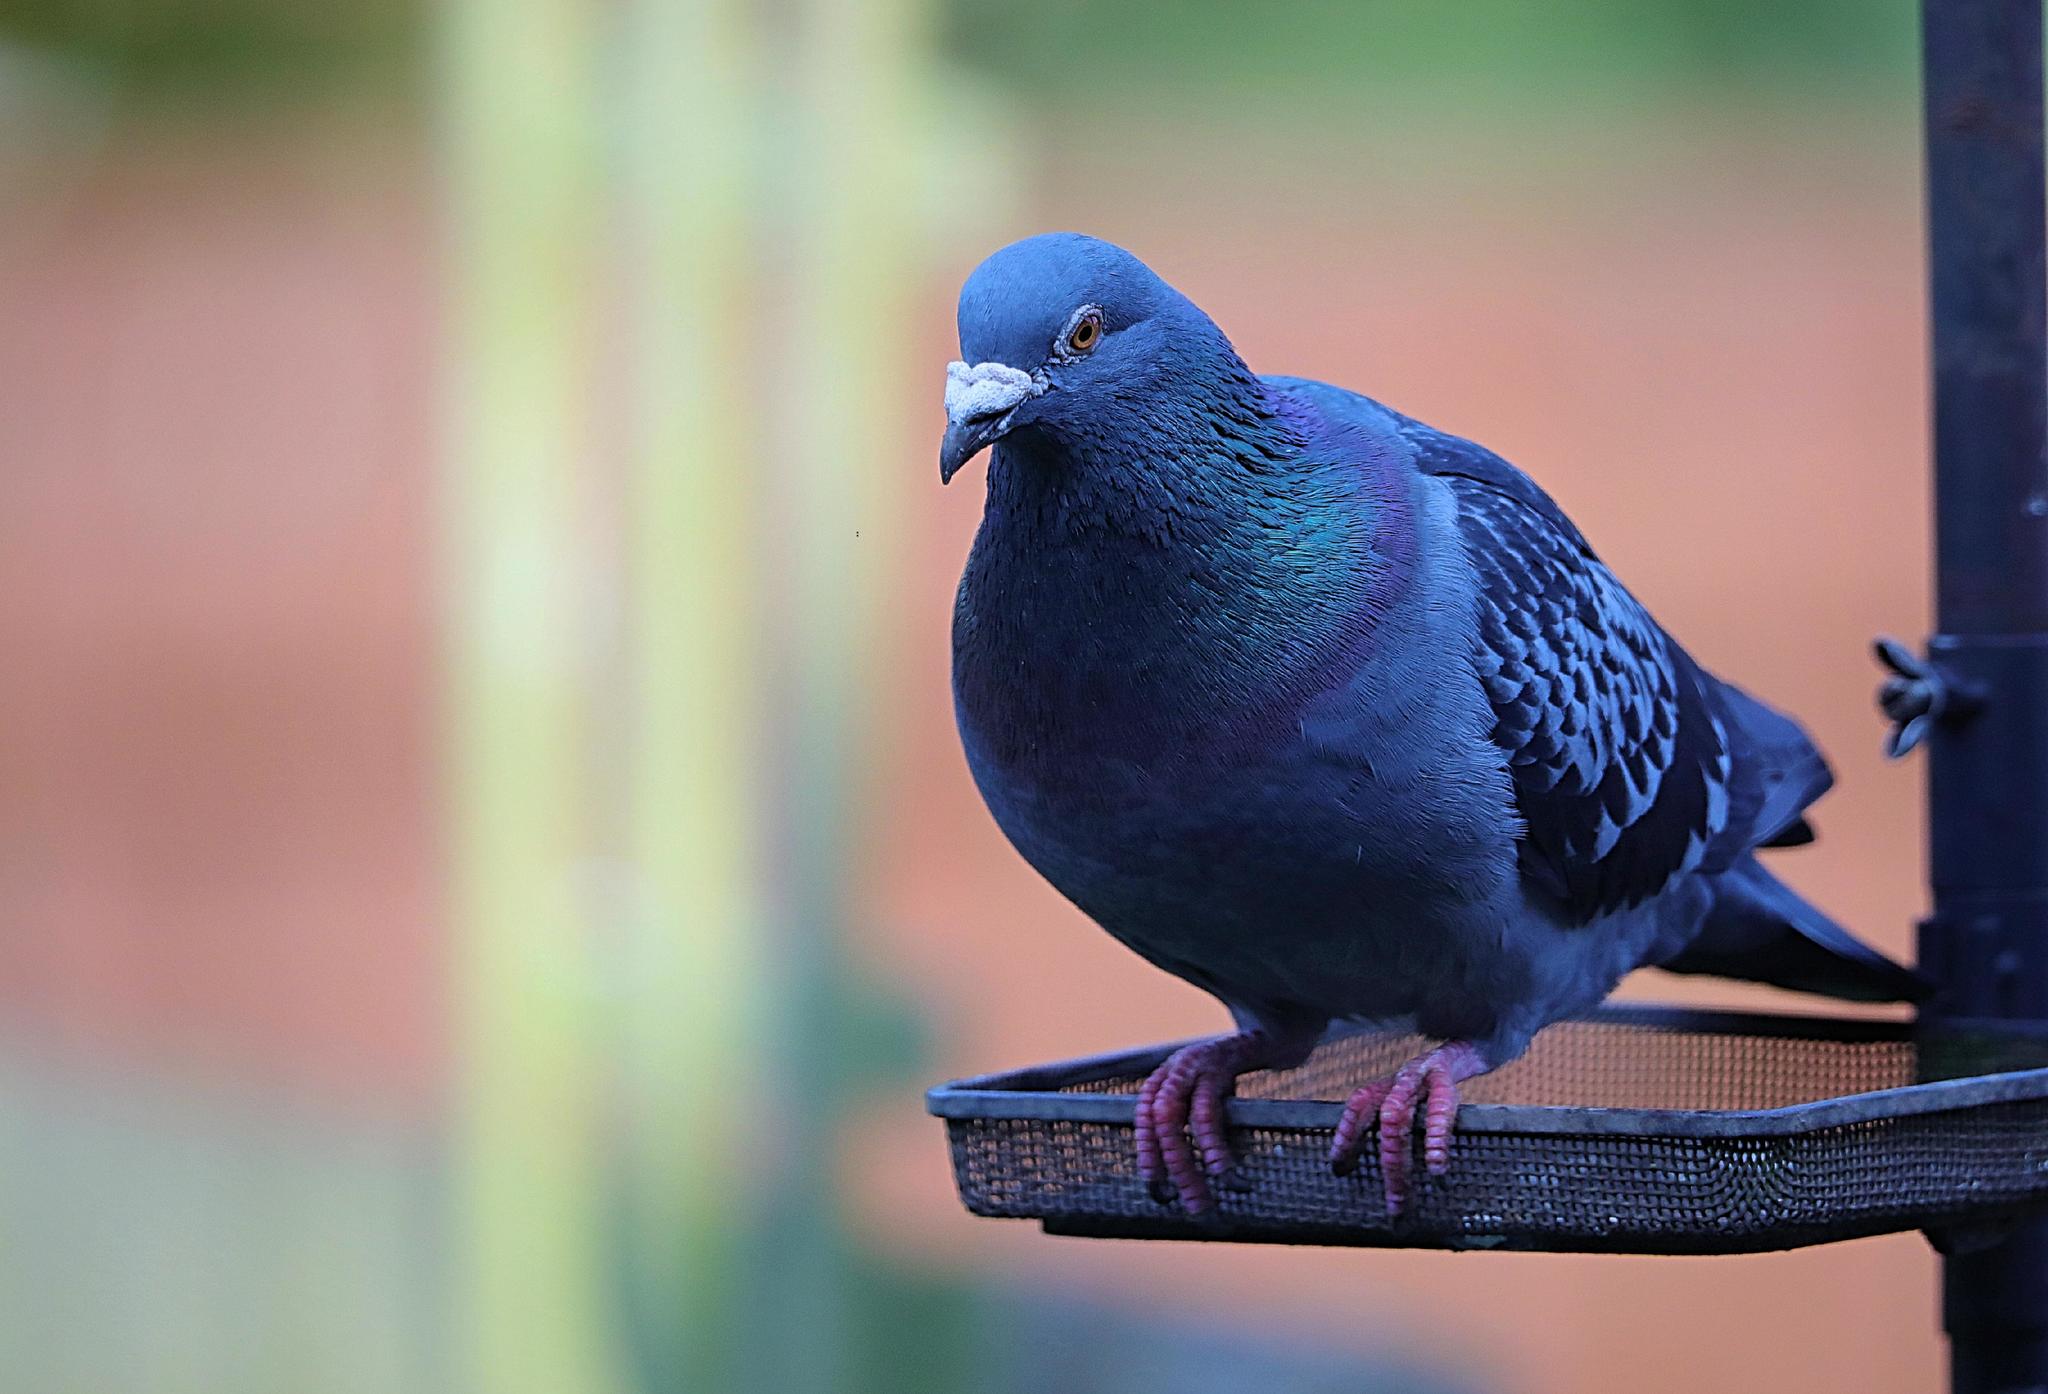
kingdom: Animalia
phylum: Chordata
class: Aves
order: Columbiformes
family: Columbidae
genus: Columba
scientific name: Columba livia
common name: Rock pigeon
